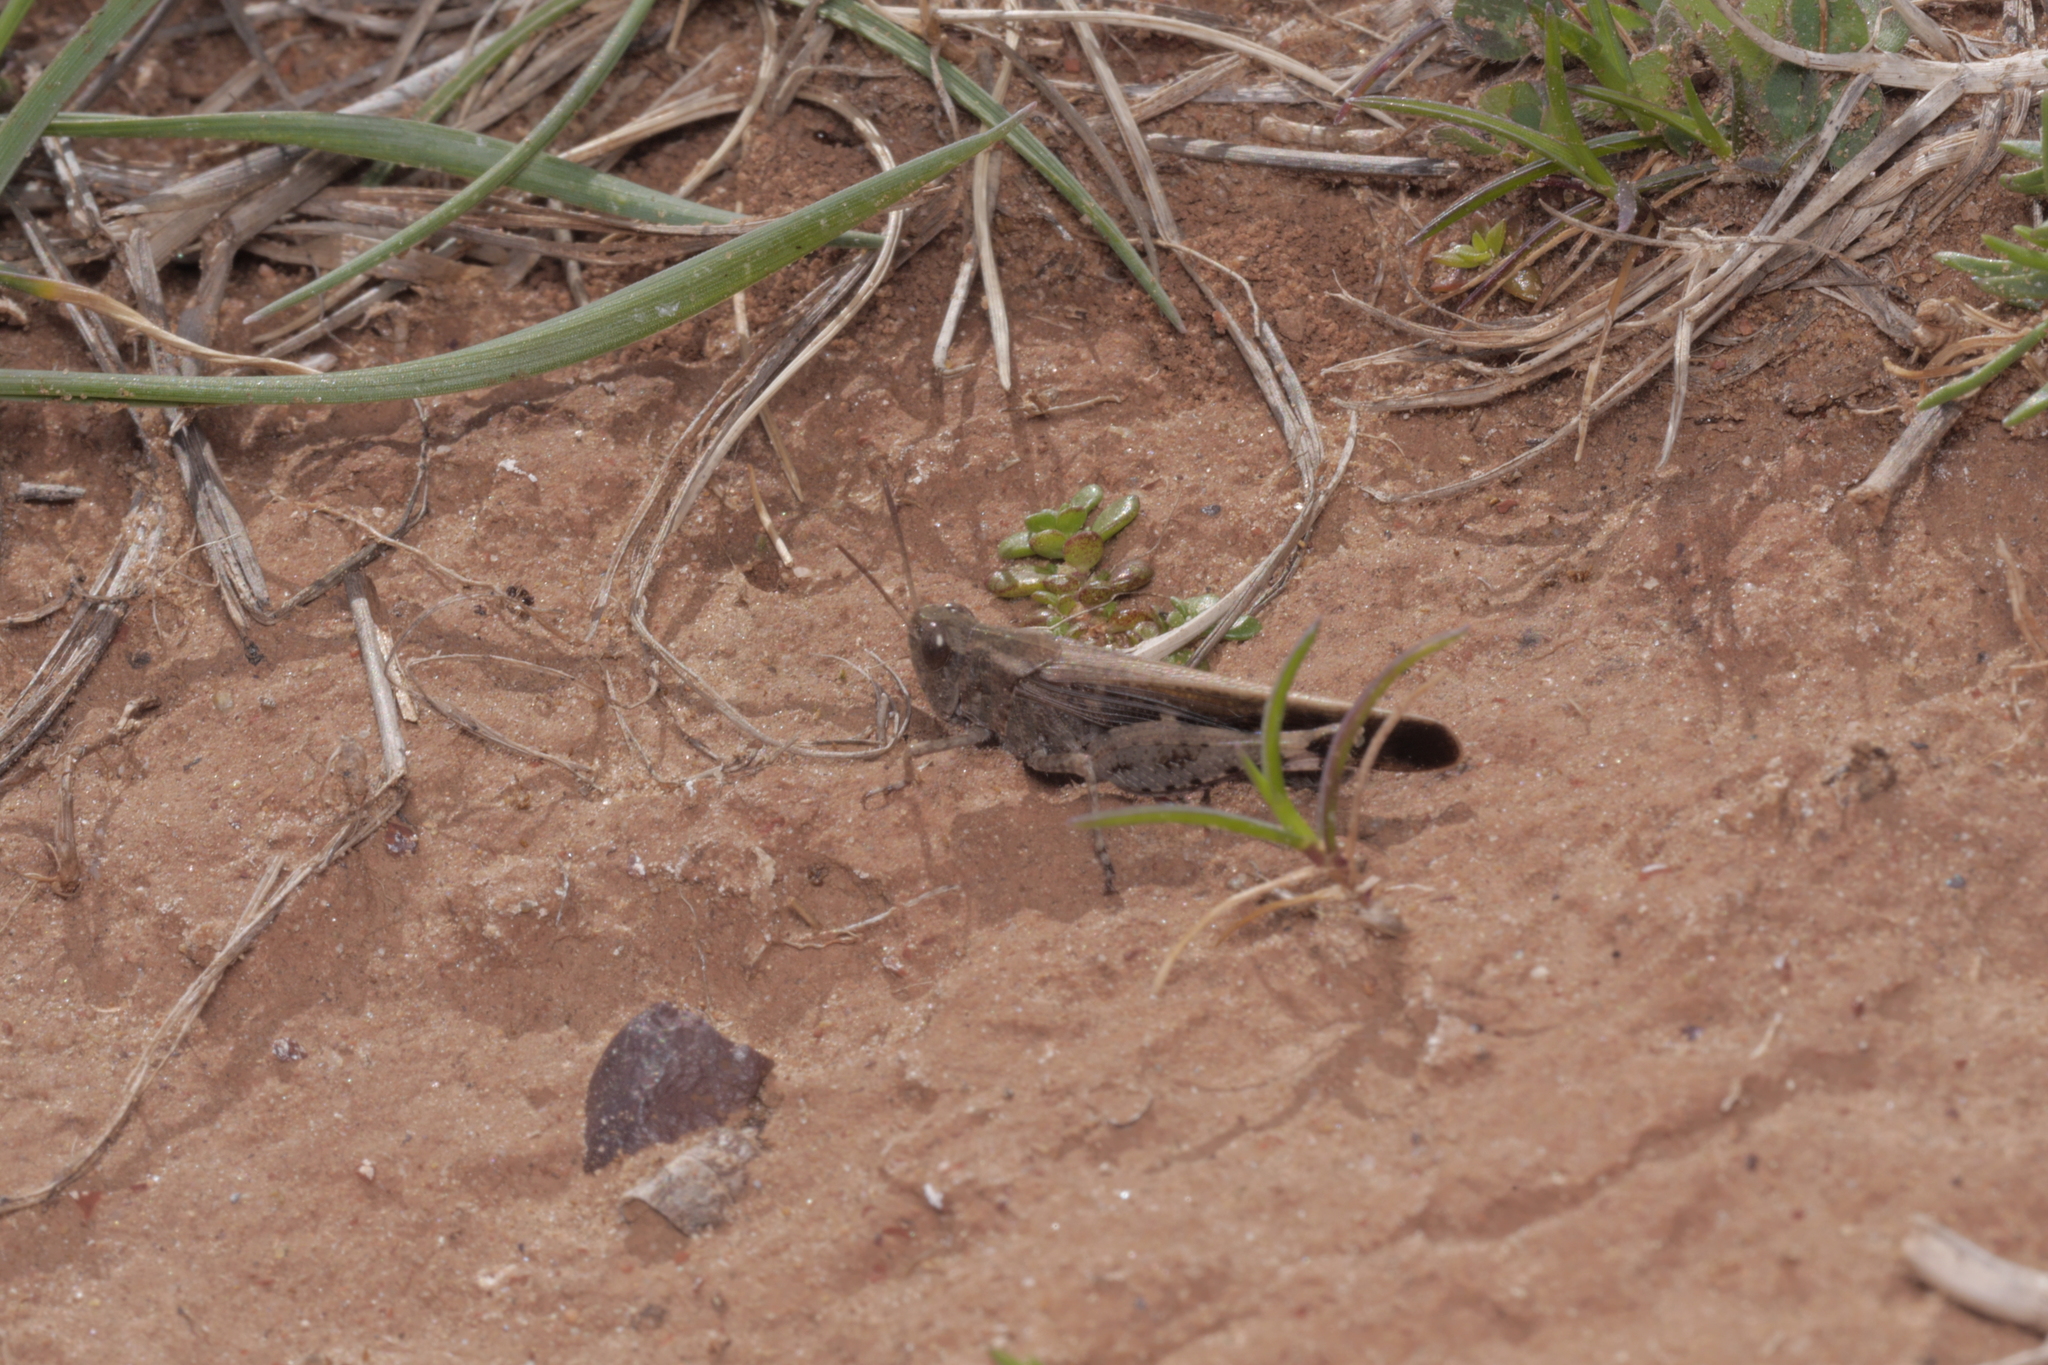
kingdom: Animalia
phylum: Arthropoda
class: Insecta
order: Orthoptera
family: Acrididae
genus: Aiolopus
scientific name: Aiolopus strepens
